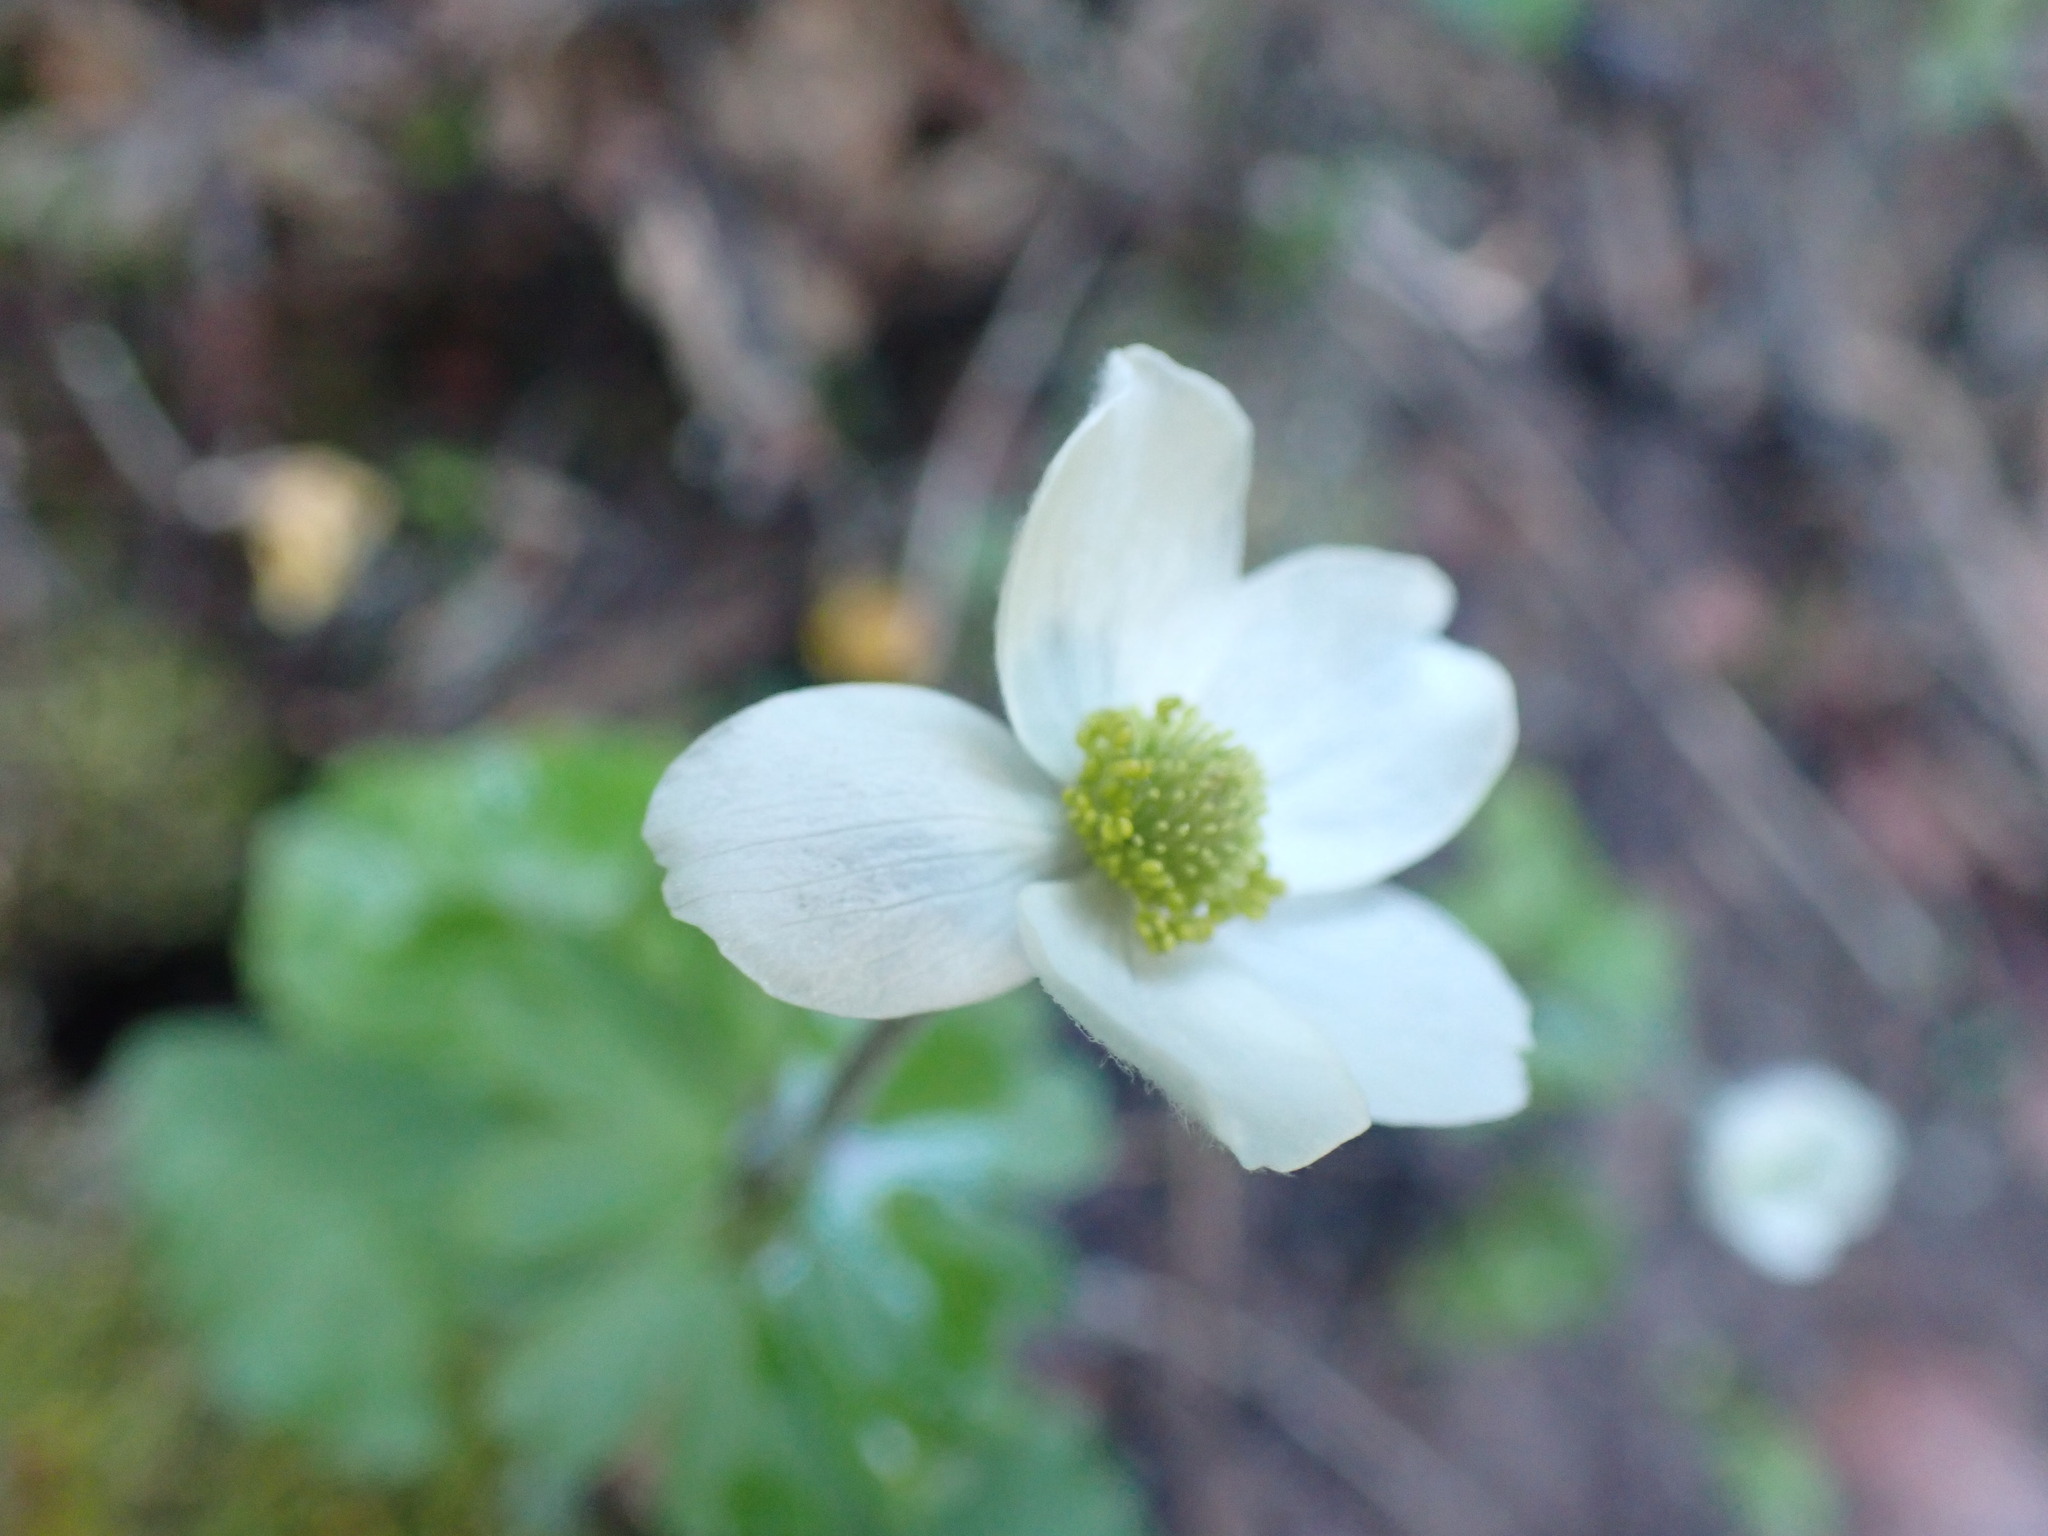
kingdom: Plantae
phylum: Tracheophyta
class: Magnoliopsida
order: Ranunculales
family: Ranunculaceae
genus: Anemone
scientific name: Anemone parviflora
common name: Northern anemone
